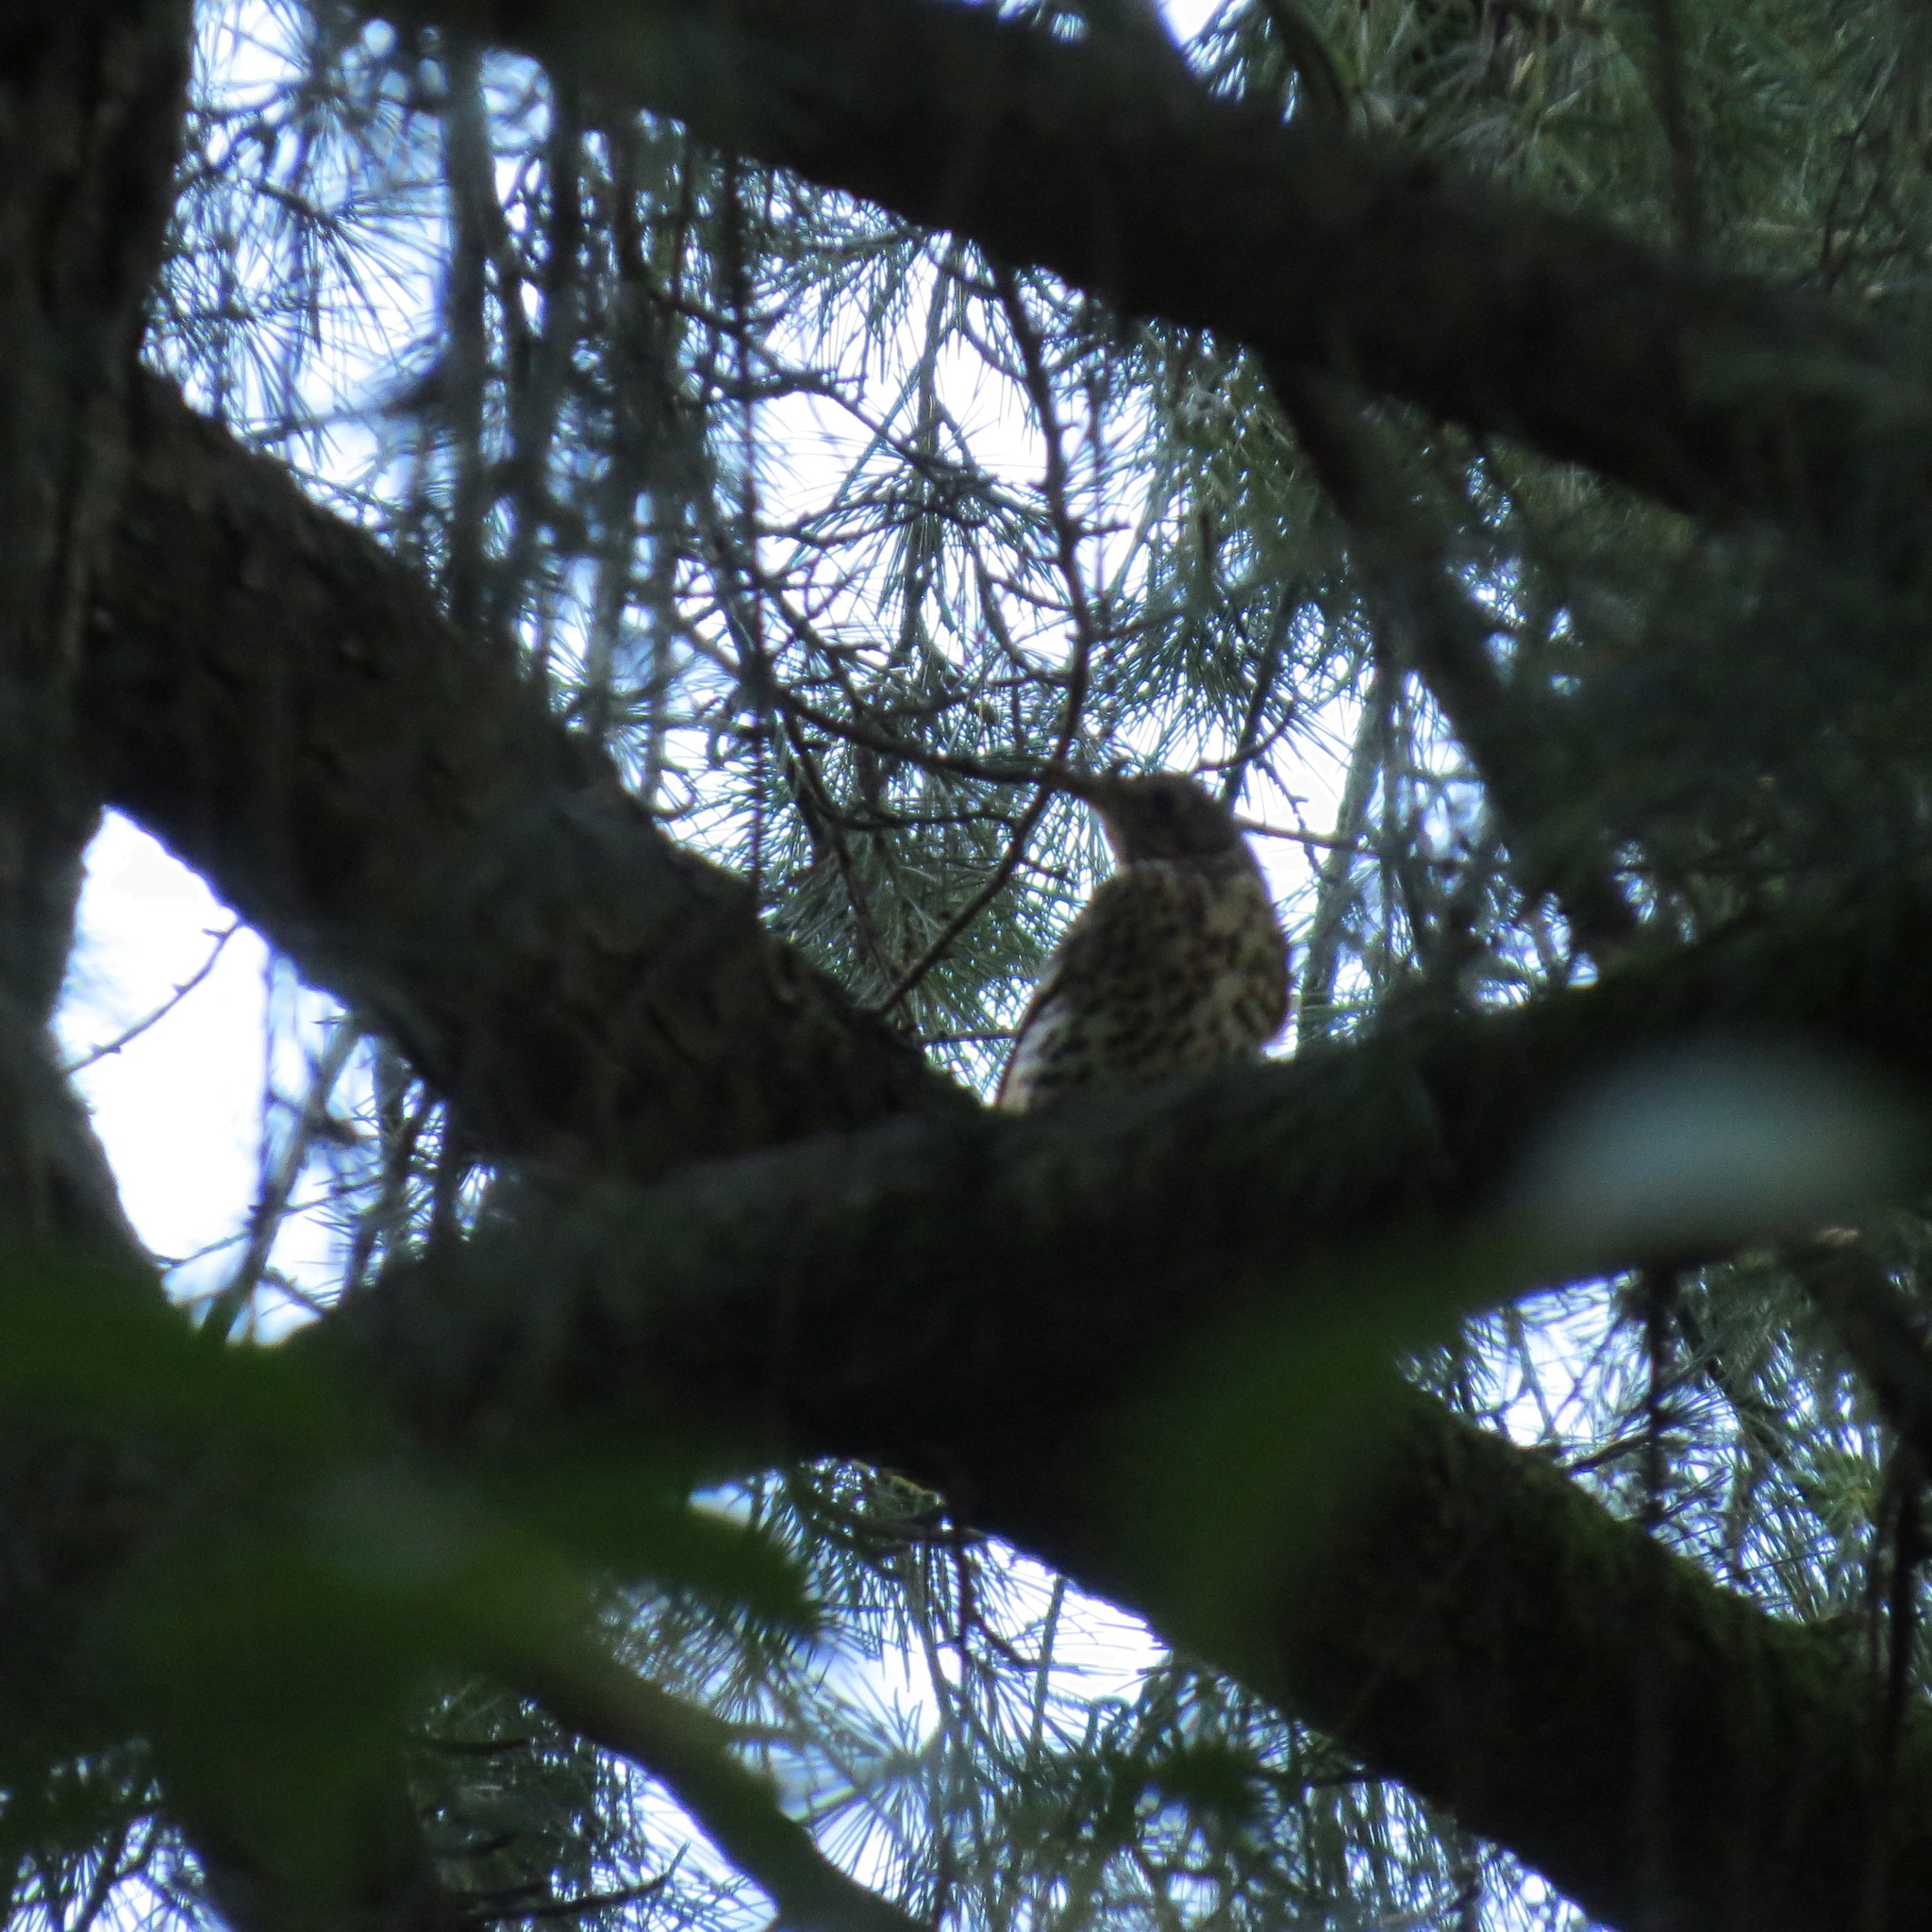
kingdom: Animalia
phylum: Chordata
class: Aves
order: Passeriformes
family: Turdidae
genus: Turdus
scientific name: Turdus philomelos
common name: Song thrush
